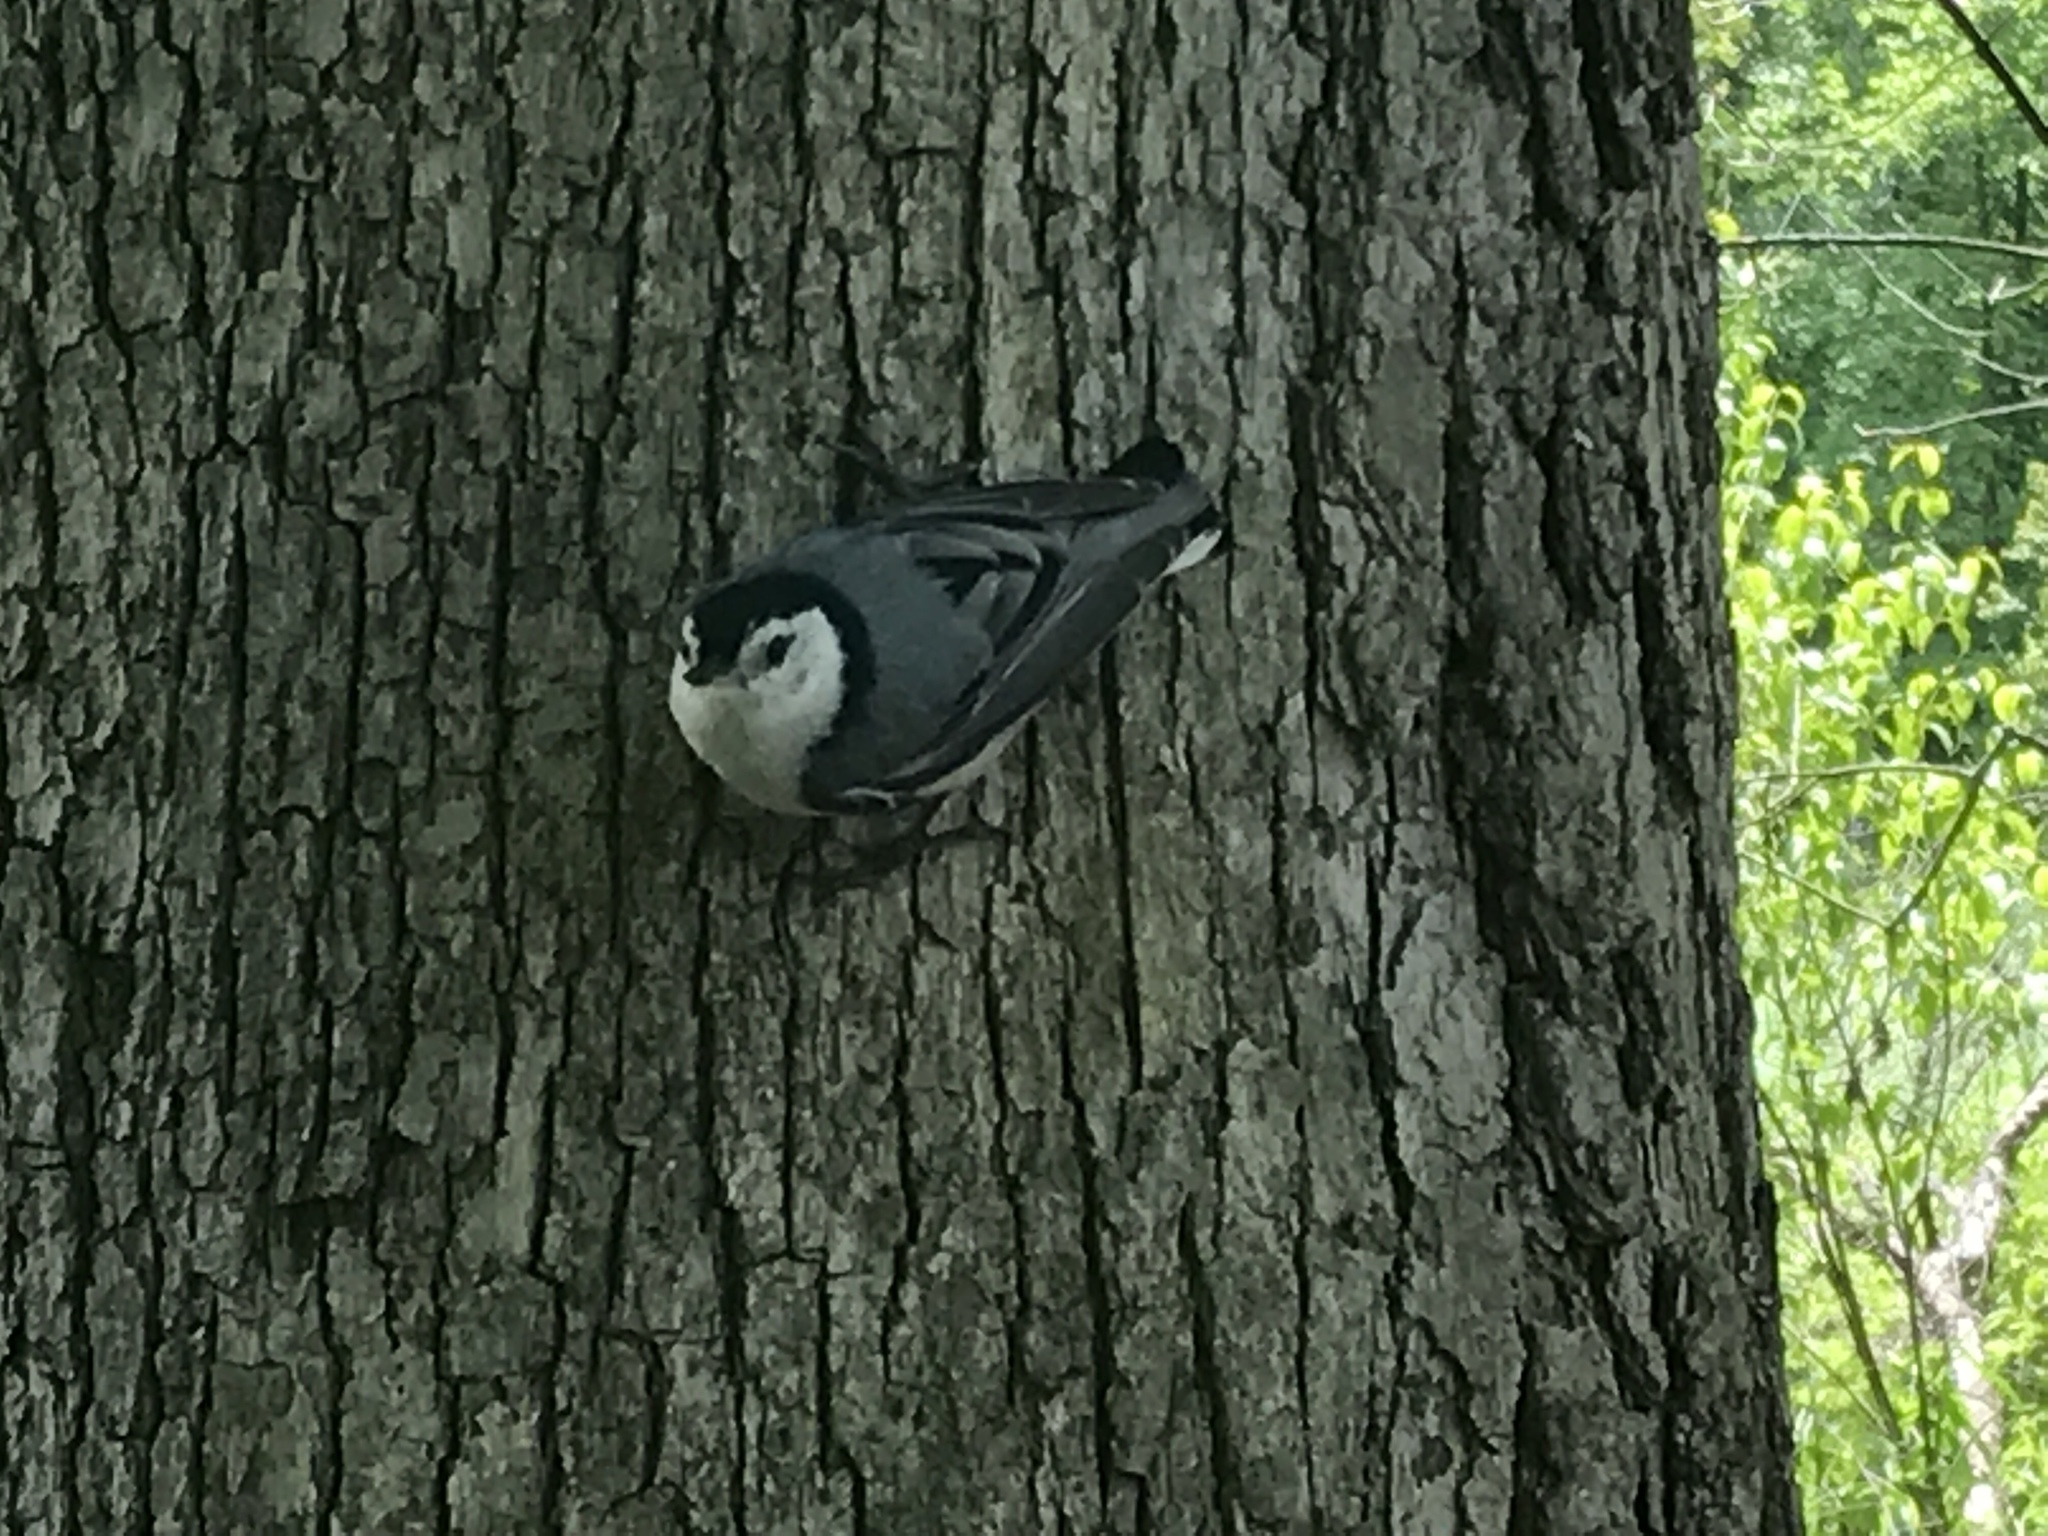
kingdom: Animalia
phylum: Chordata
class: Aves
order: Passeriformes
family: Sittidae
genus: Sitta
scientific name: Sitta carolinensis
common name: White-breasted nuthatch
